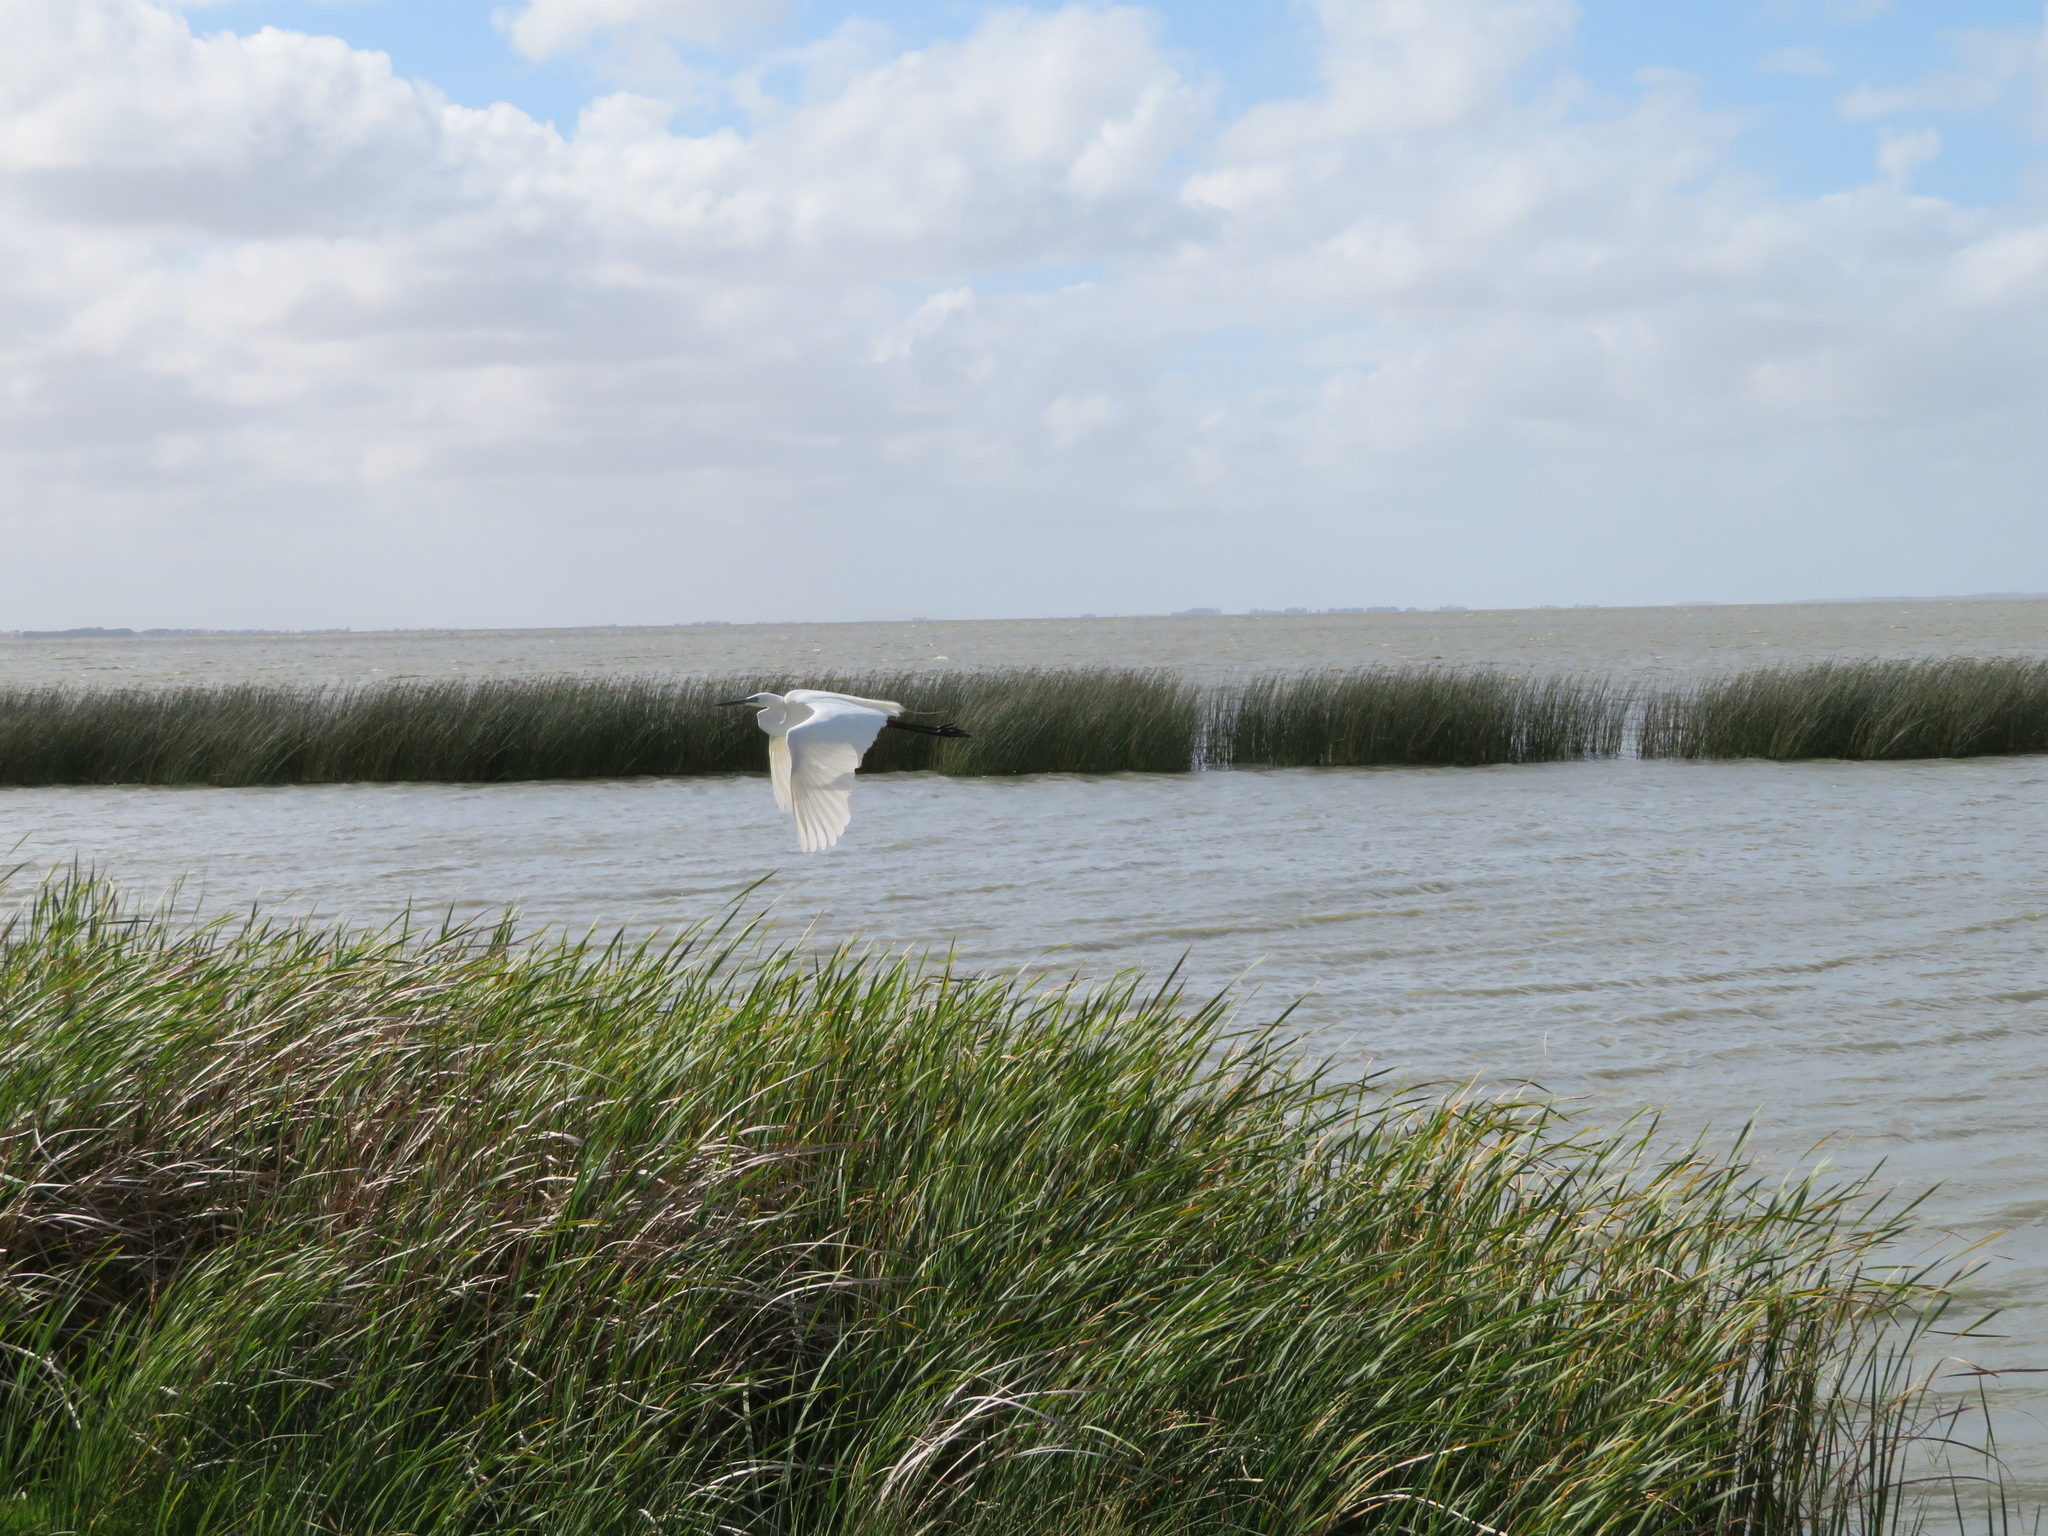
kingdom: Animalia
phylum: Chordata
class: Aves
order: Pelecaniformes
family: Ardeidae
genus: Ardea
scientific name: Ardea modesta
